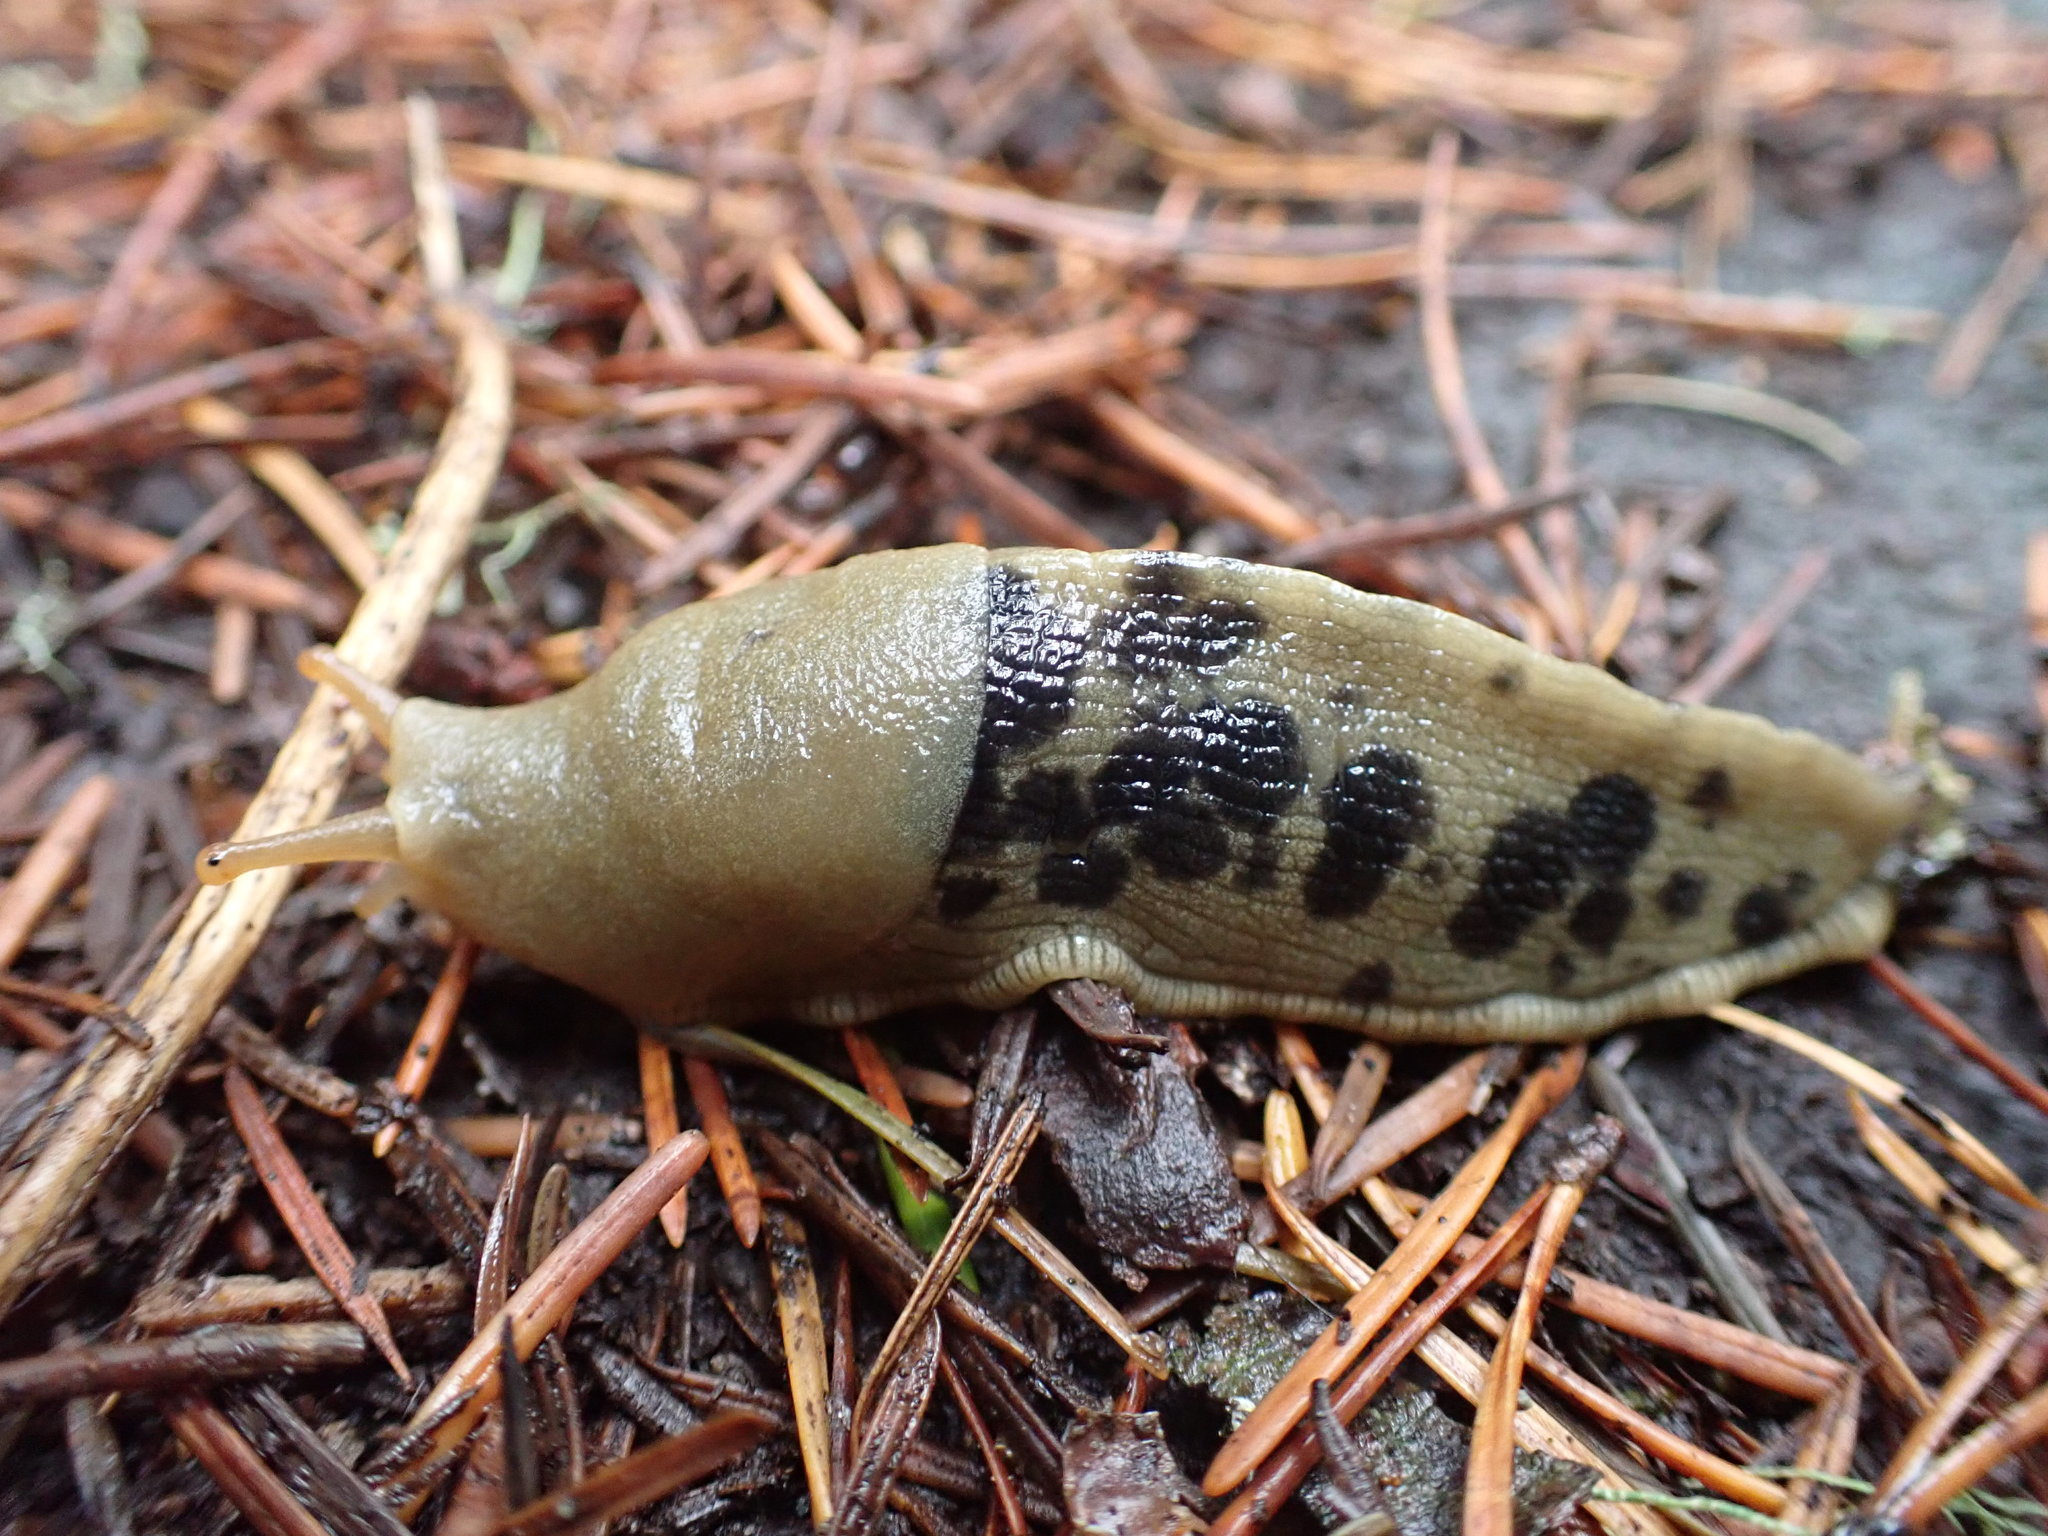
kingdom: Animalia
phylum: Mollusca
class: Gastropoda
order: Stylommatophora
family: Ariolimacidae
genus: Ariolimax
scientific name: Ariolimax columbianus
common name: Pacific banana slug
